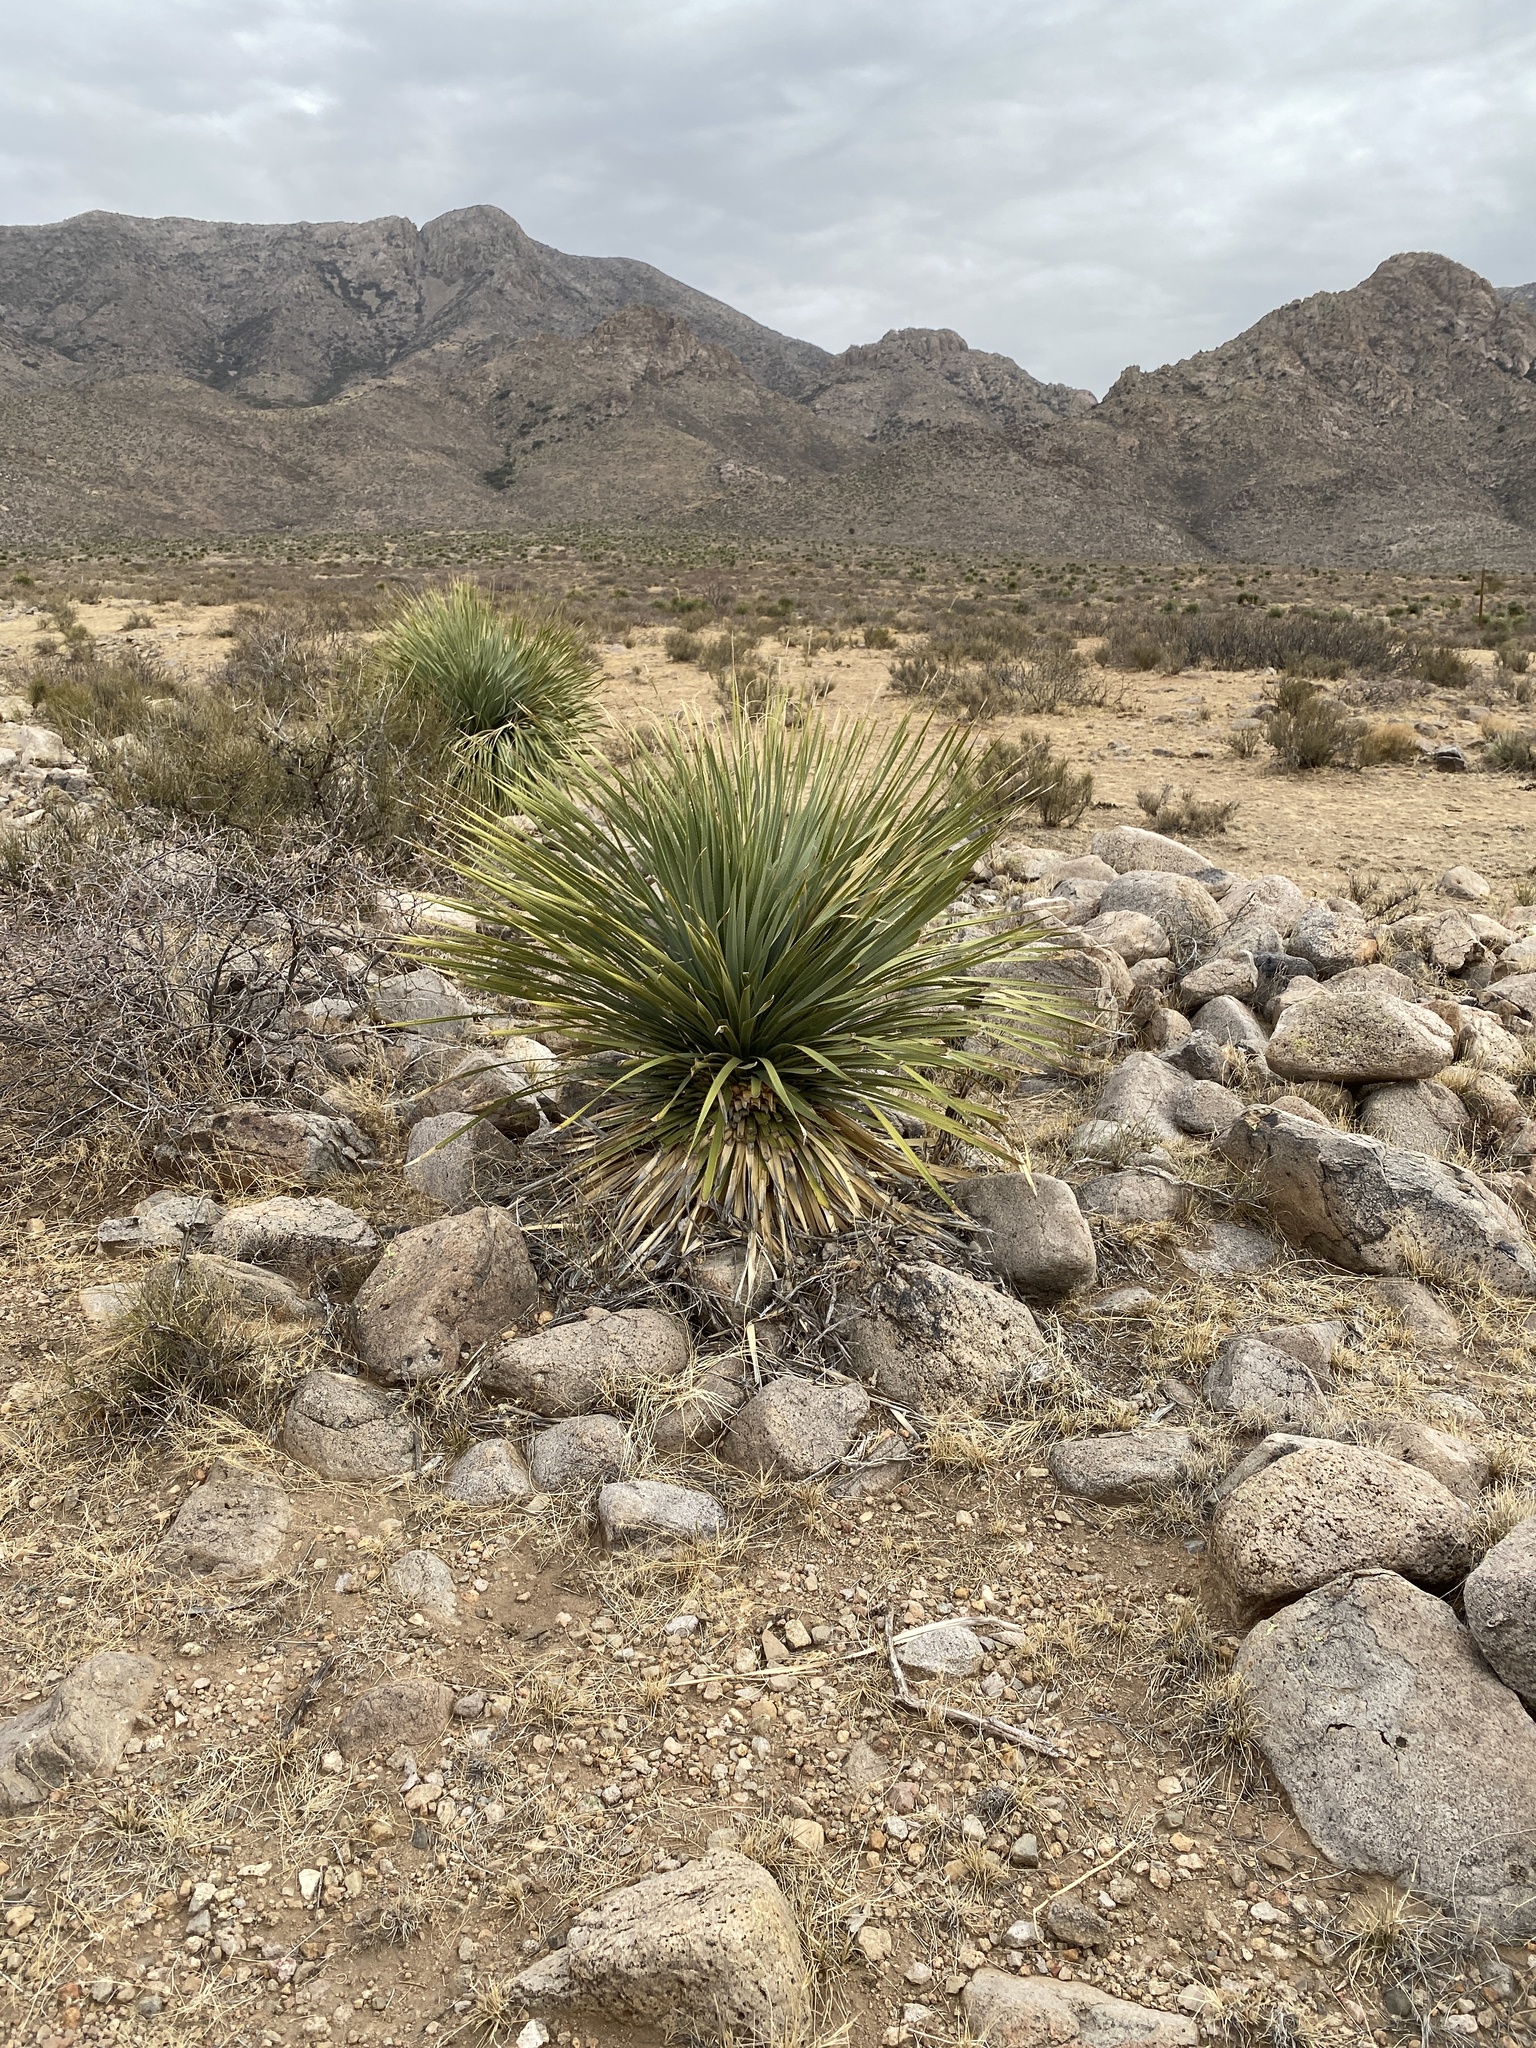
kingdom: Plantae
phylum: Tracheophyta
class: Liliopsida
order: Asparagales
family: Asparagaceae
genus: Dasylirion
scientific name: Dasylirion wheeleri
